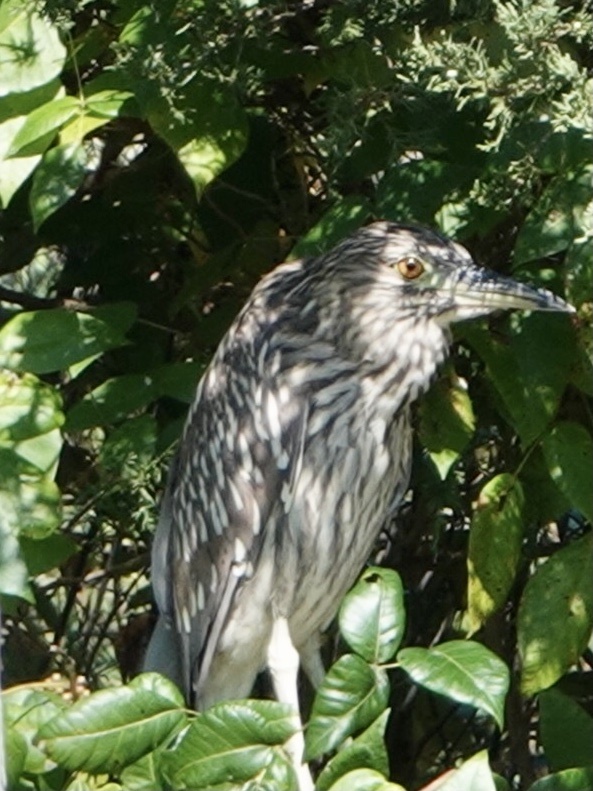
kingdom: Animalia
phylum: Chordata
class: Aves
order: Pelecaniformes
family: Ardeidae
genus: Nycticorax
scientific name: Nycticorax nycticorax
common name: Black-crowned night heron
